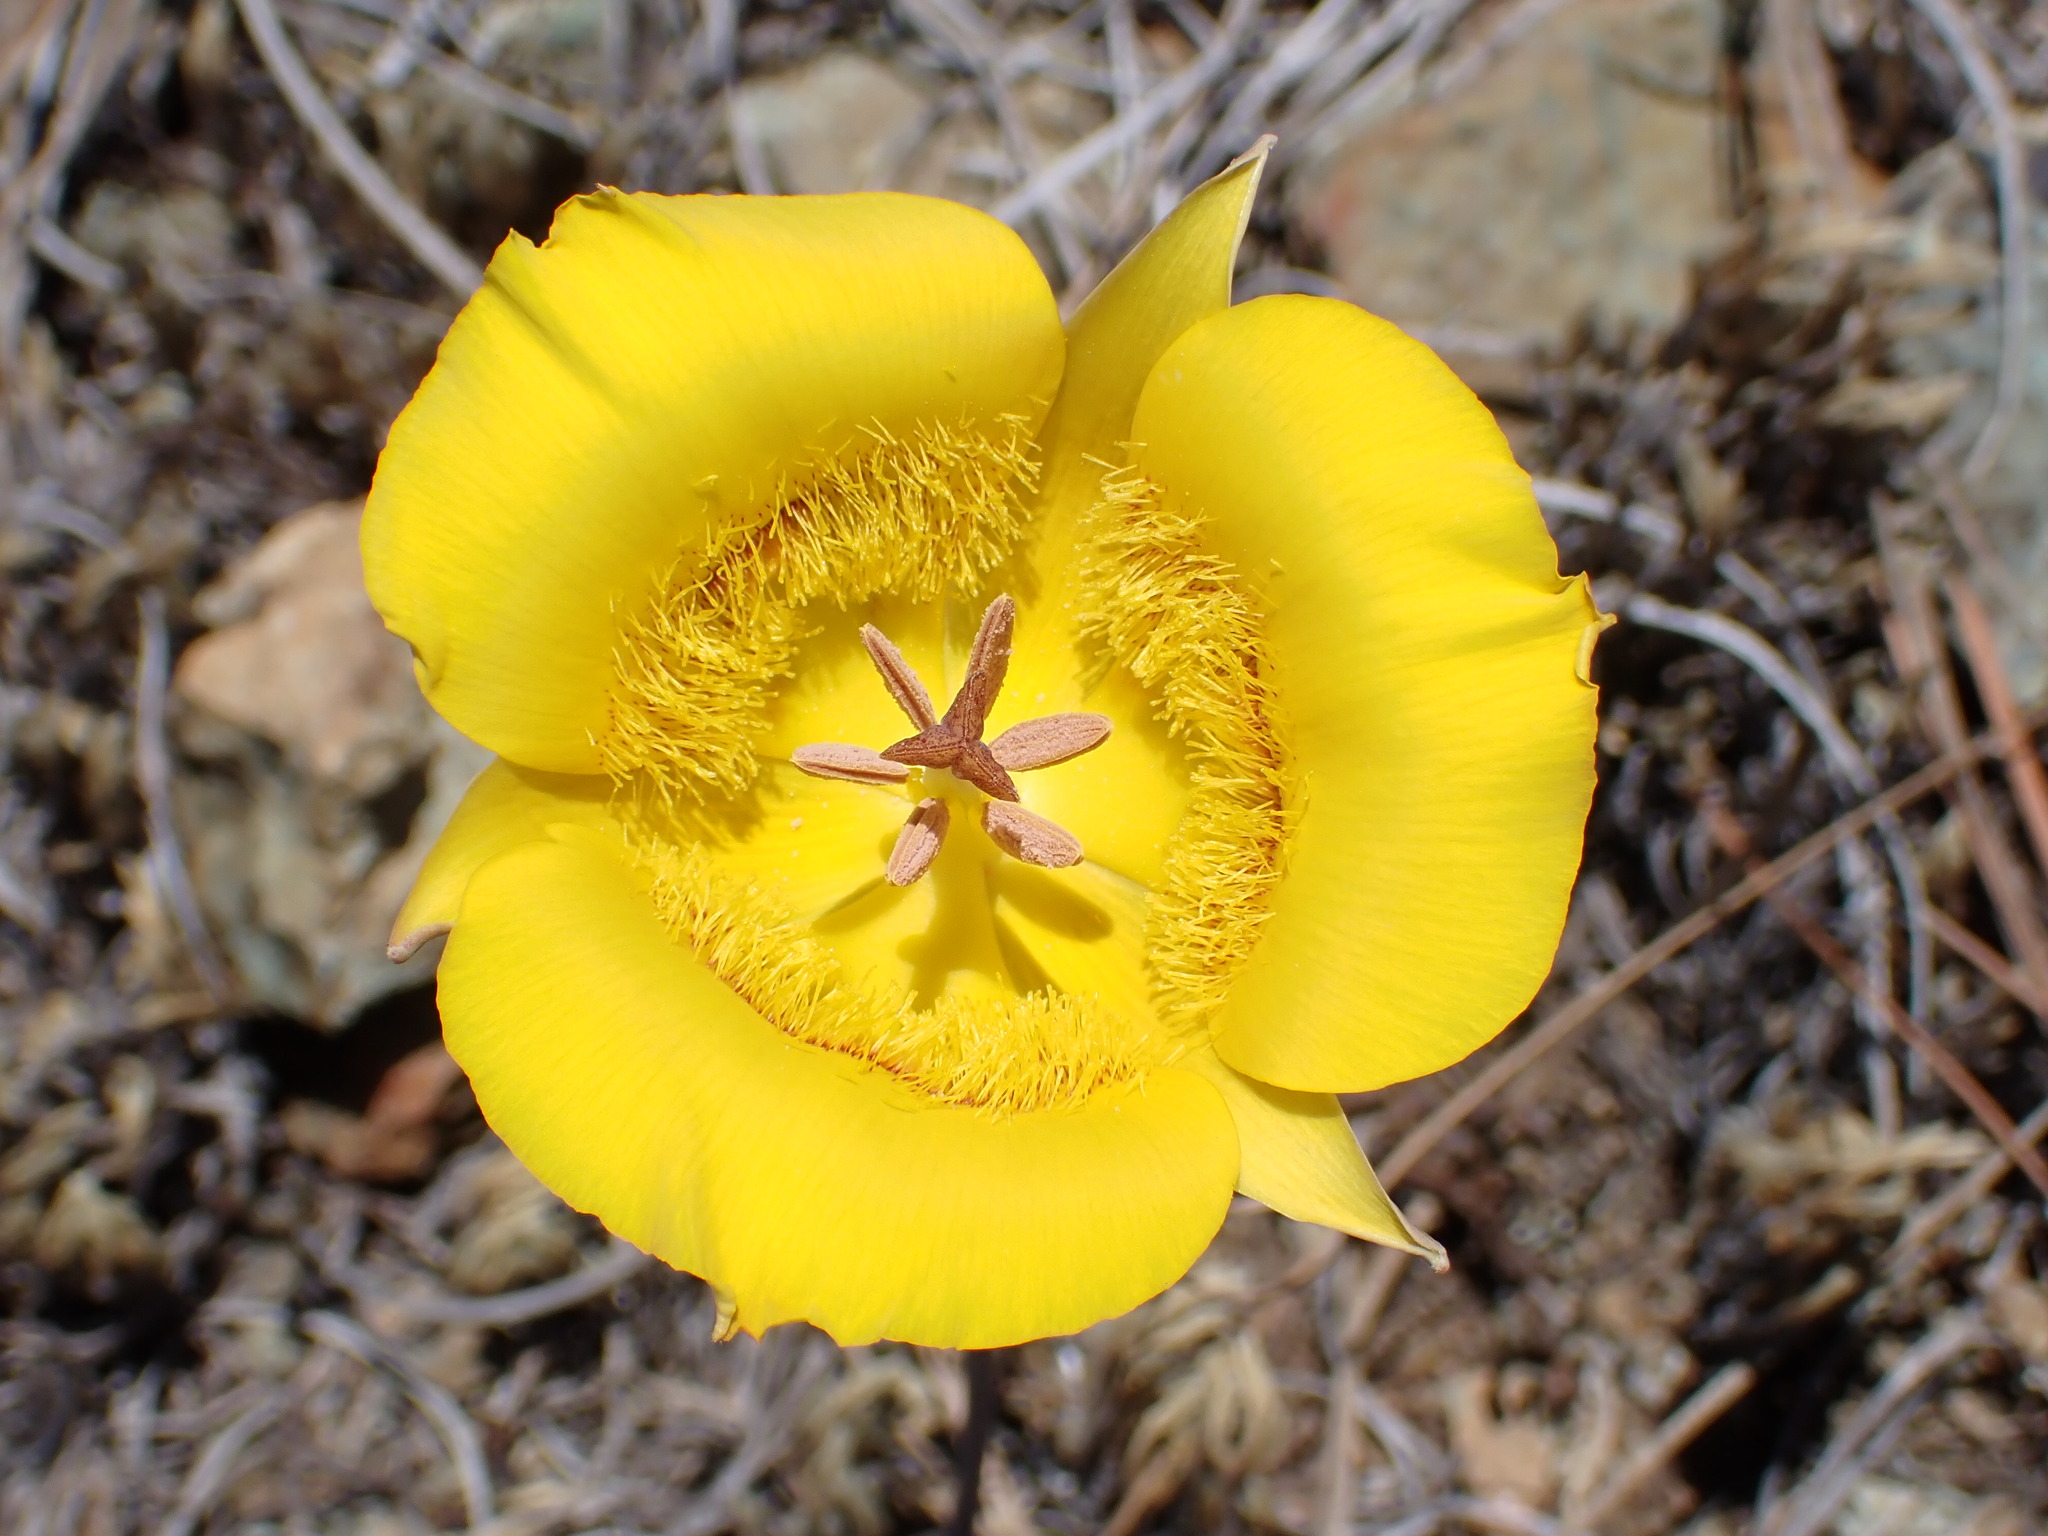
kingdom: Plantae
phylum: Tracheophyta
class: Liliopsida
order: Liliales
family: Liliaceae
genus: Calochortus
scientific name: Calochortus clavatus
